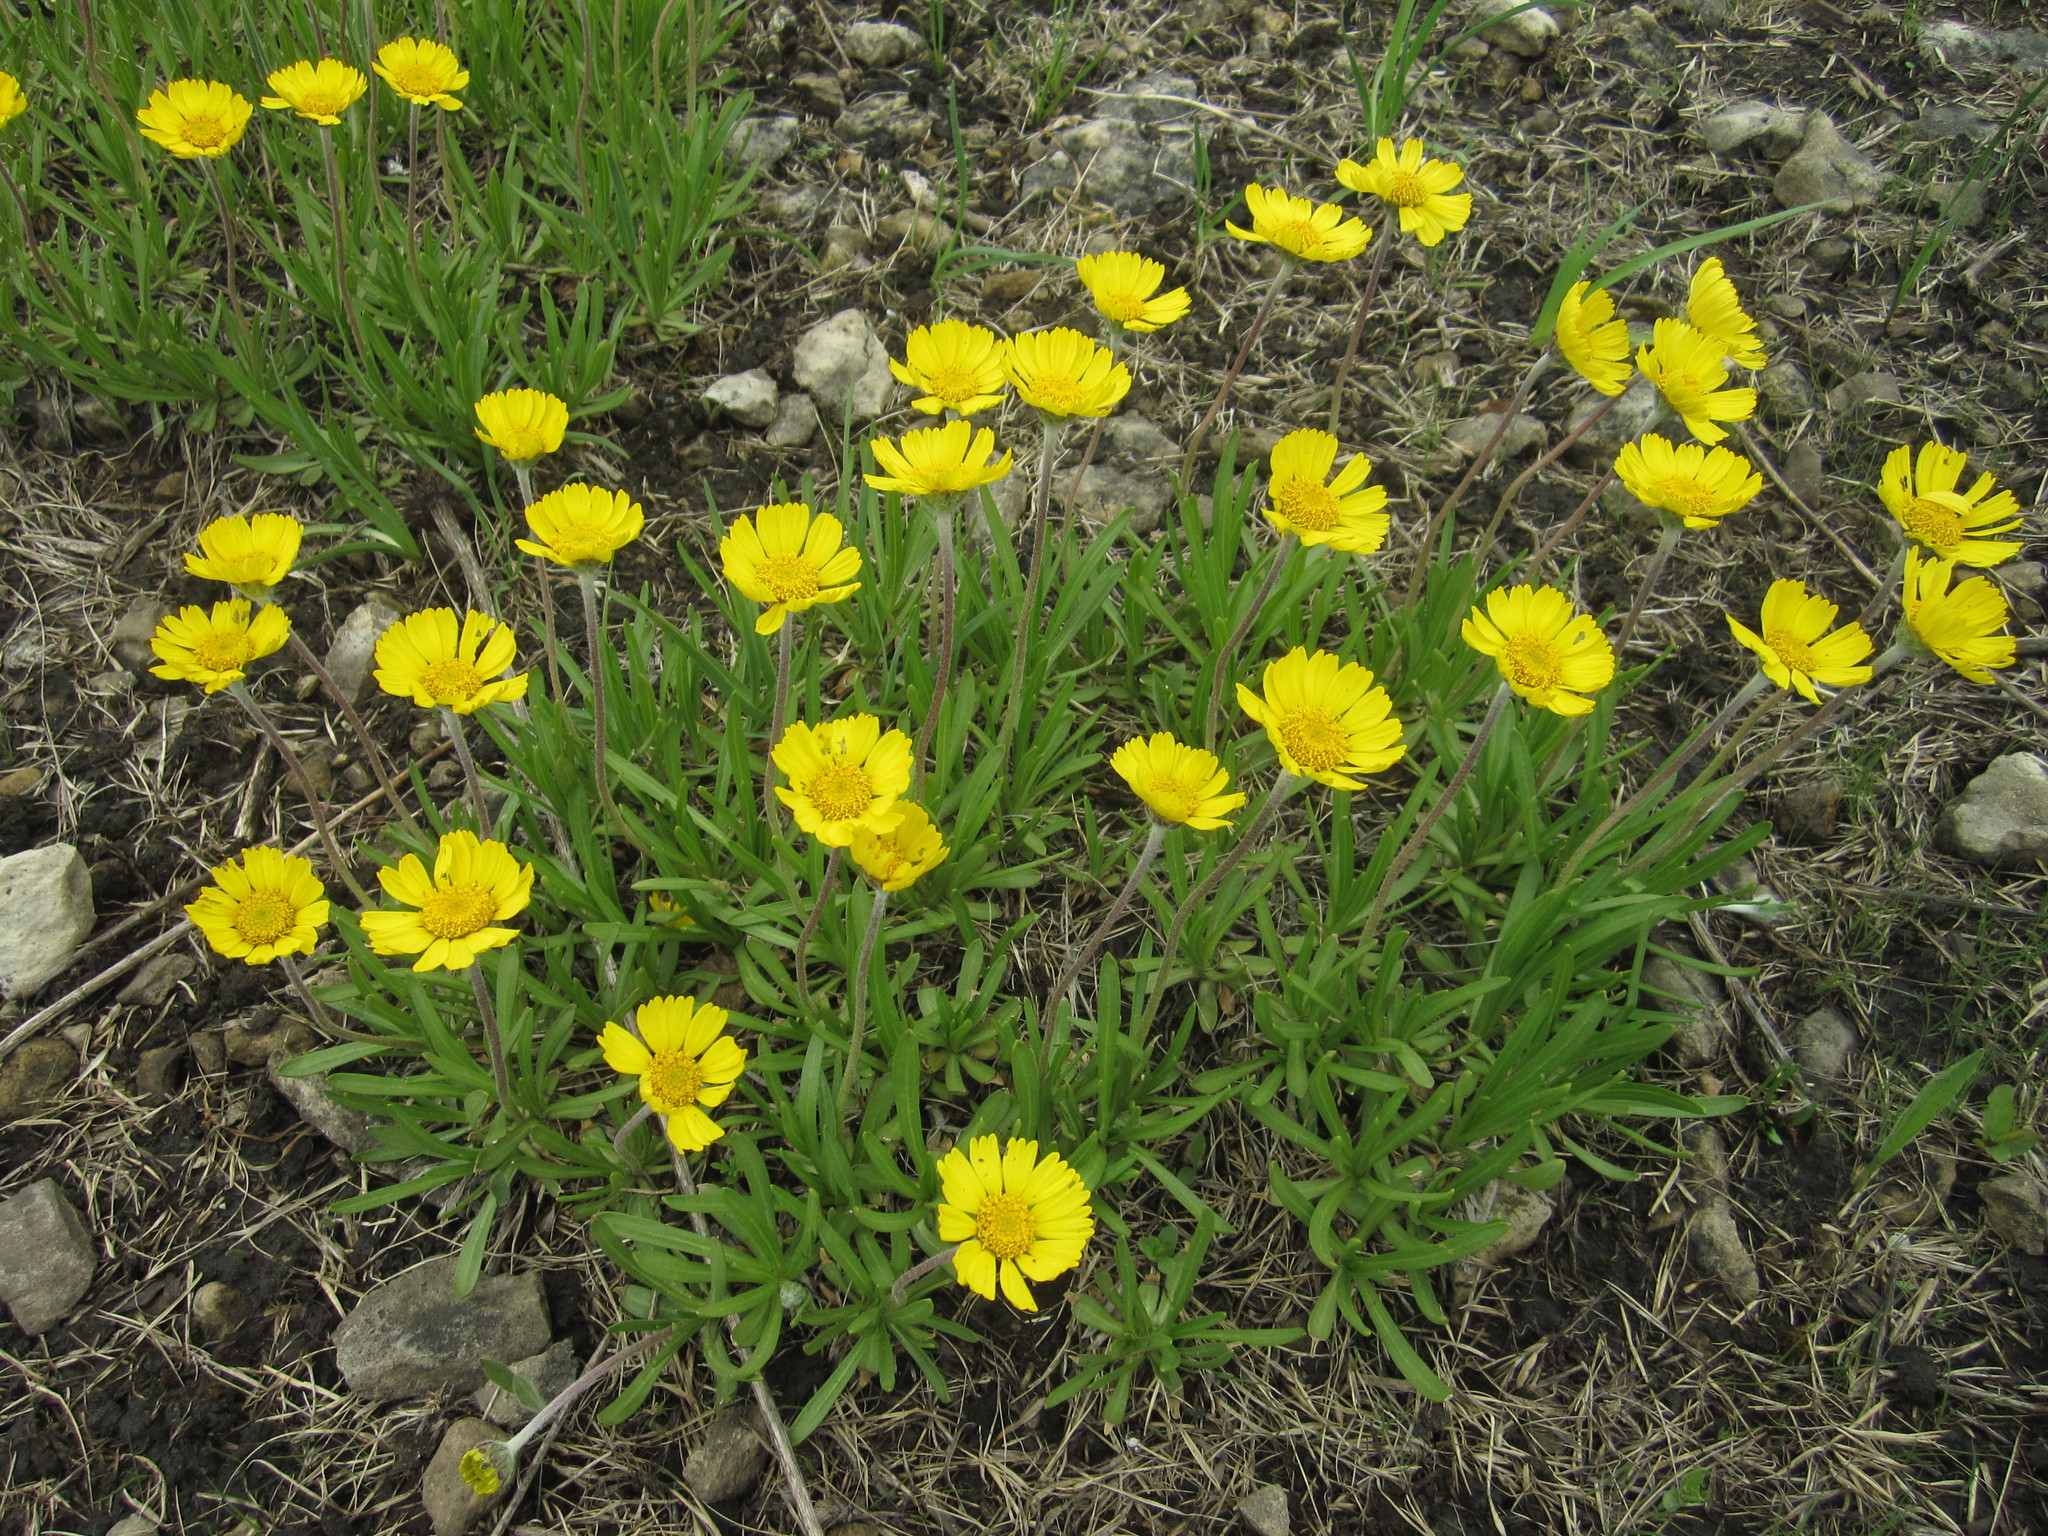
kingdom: Plantae
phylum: Tracheophyta
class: Magnoliopsida
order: Asterales
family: Asteraceae
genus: Tetraneuris
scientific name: Tetraneuris herbacea
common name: Lakeside daisy
